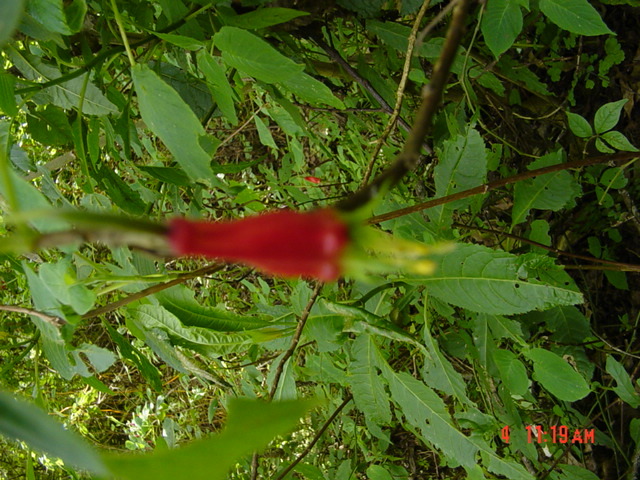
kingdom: Plantae
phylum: Tracheophyta
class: Magnoliopsida
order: Myrtales
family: Onagraceae
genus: Fuchsia
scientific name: Fuchsia splendens
